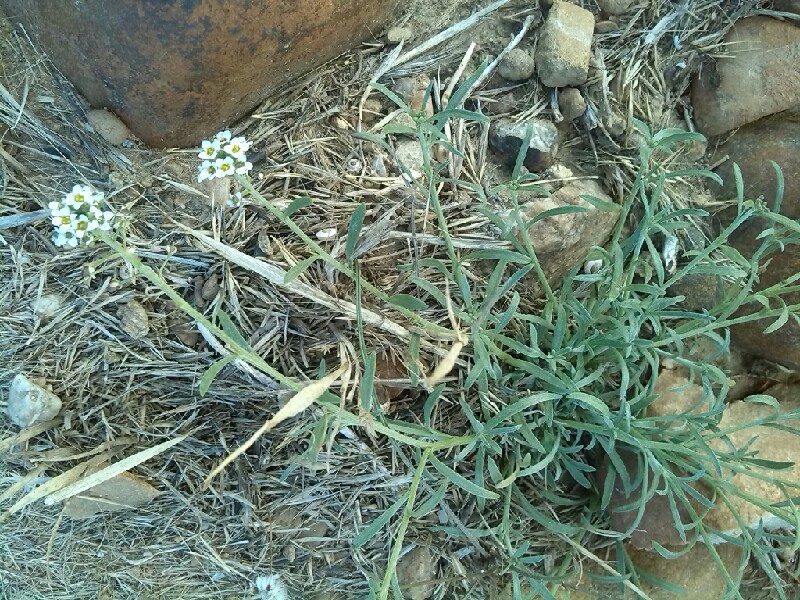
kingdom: Plantae
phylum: Tracheophyta
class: Magnoliopsida
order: Brassicales
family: Brassicaceae
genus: Lobularia
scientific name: Lobularia maritima
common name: Sweet alison
